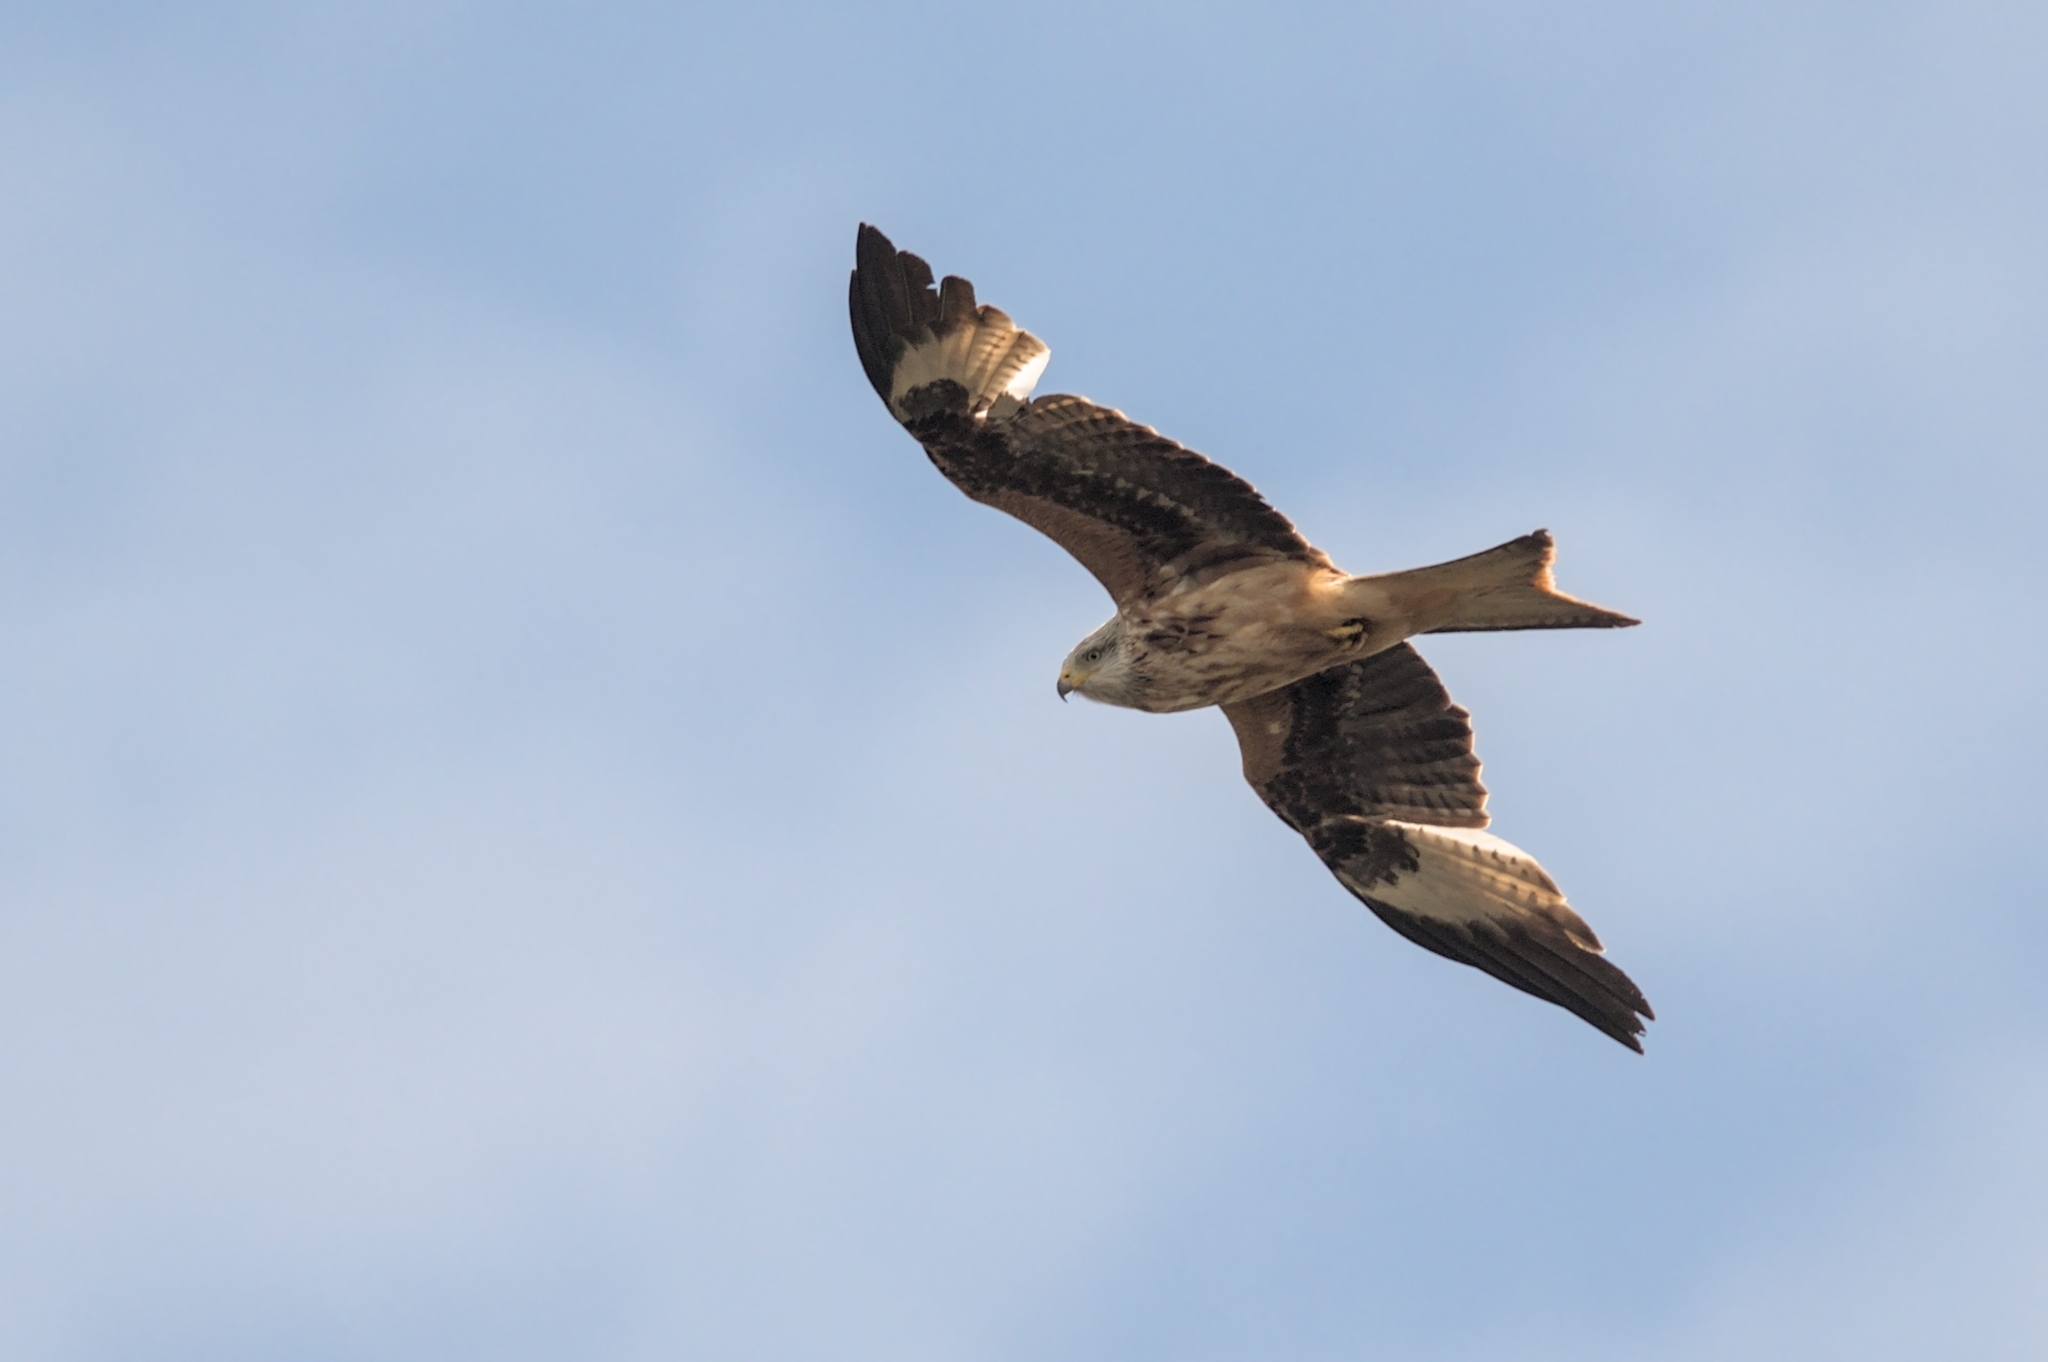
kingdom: Animalia
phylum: Chordata
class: Aves
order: Accipitriformes
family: Accipitridae
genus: Milvus
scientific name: Milvus milvus
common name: Red kite
